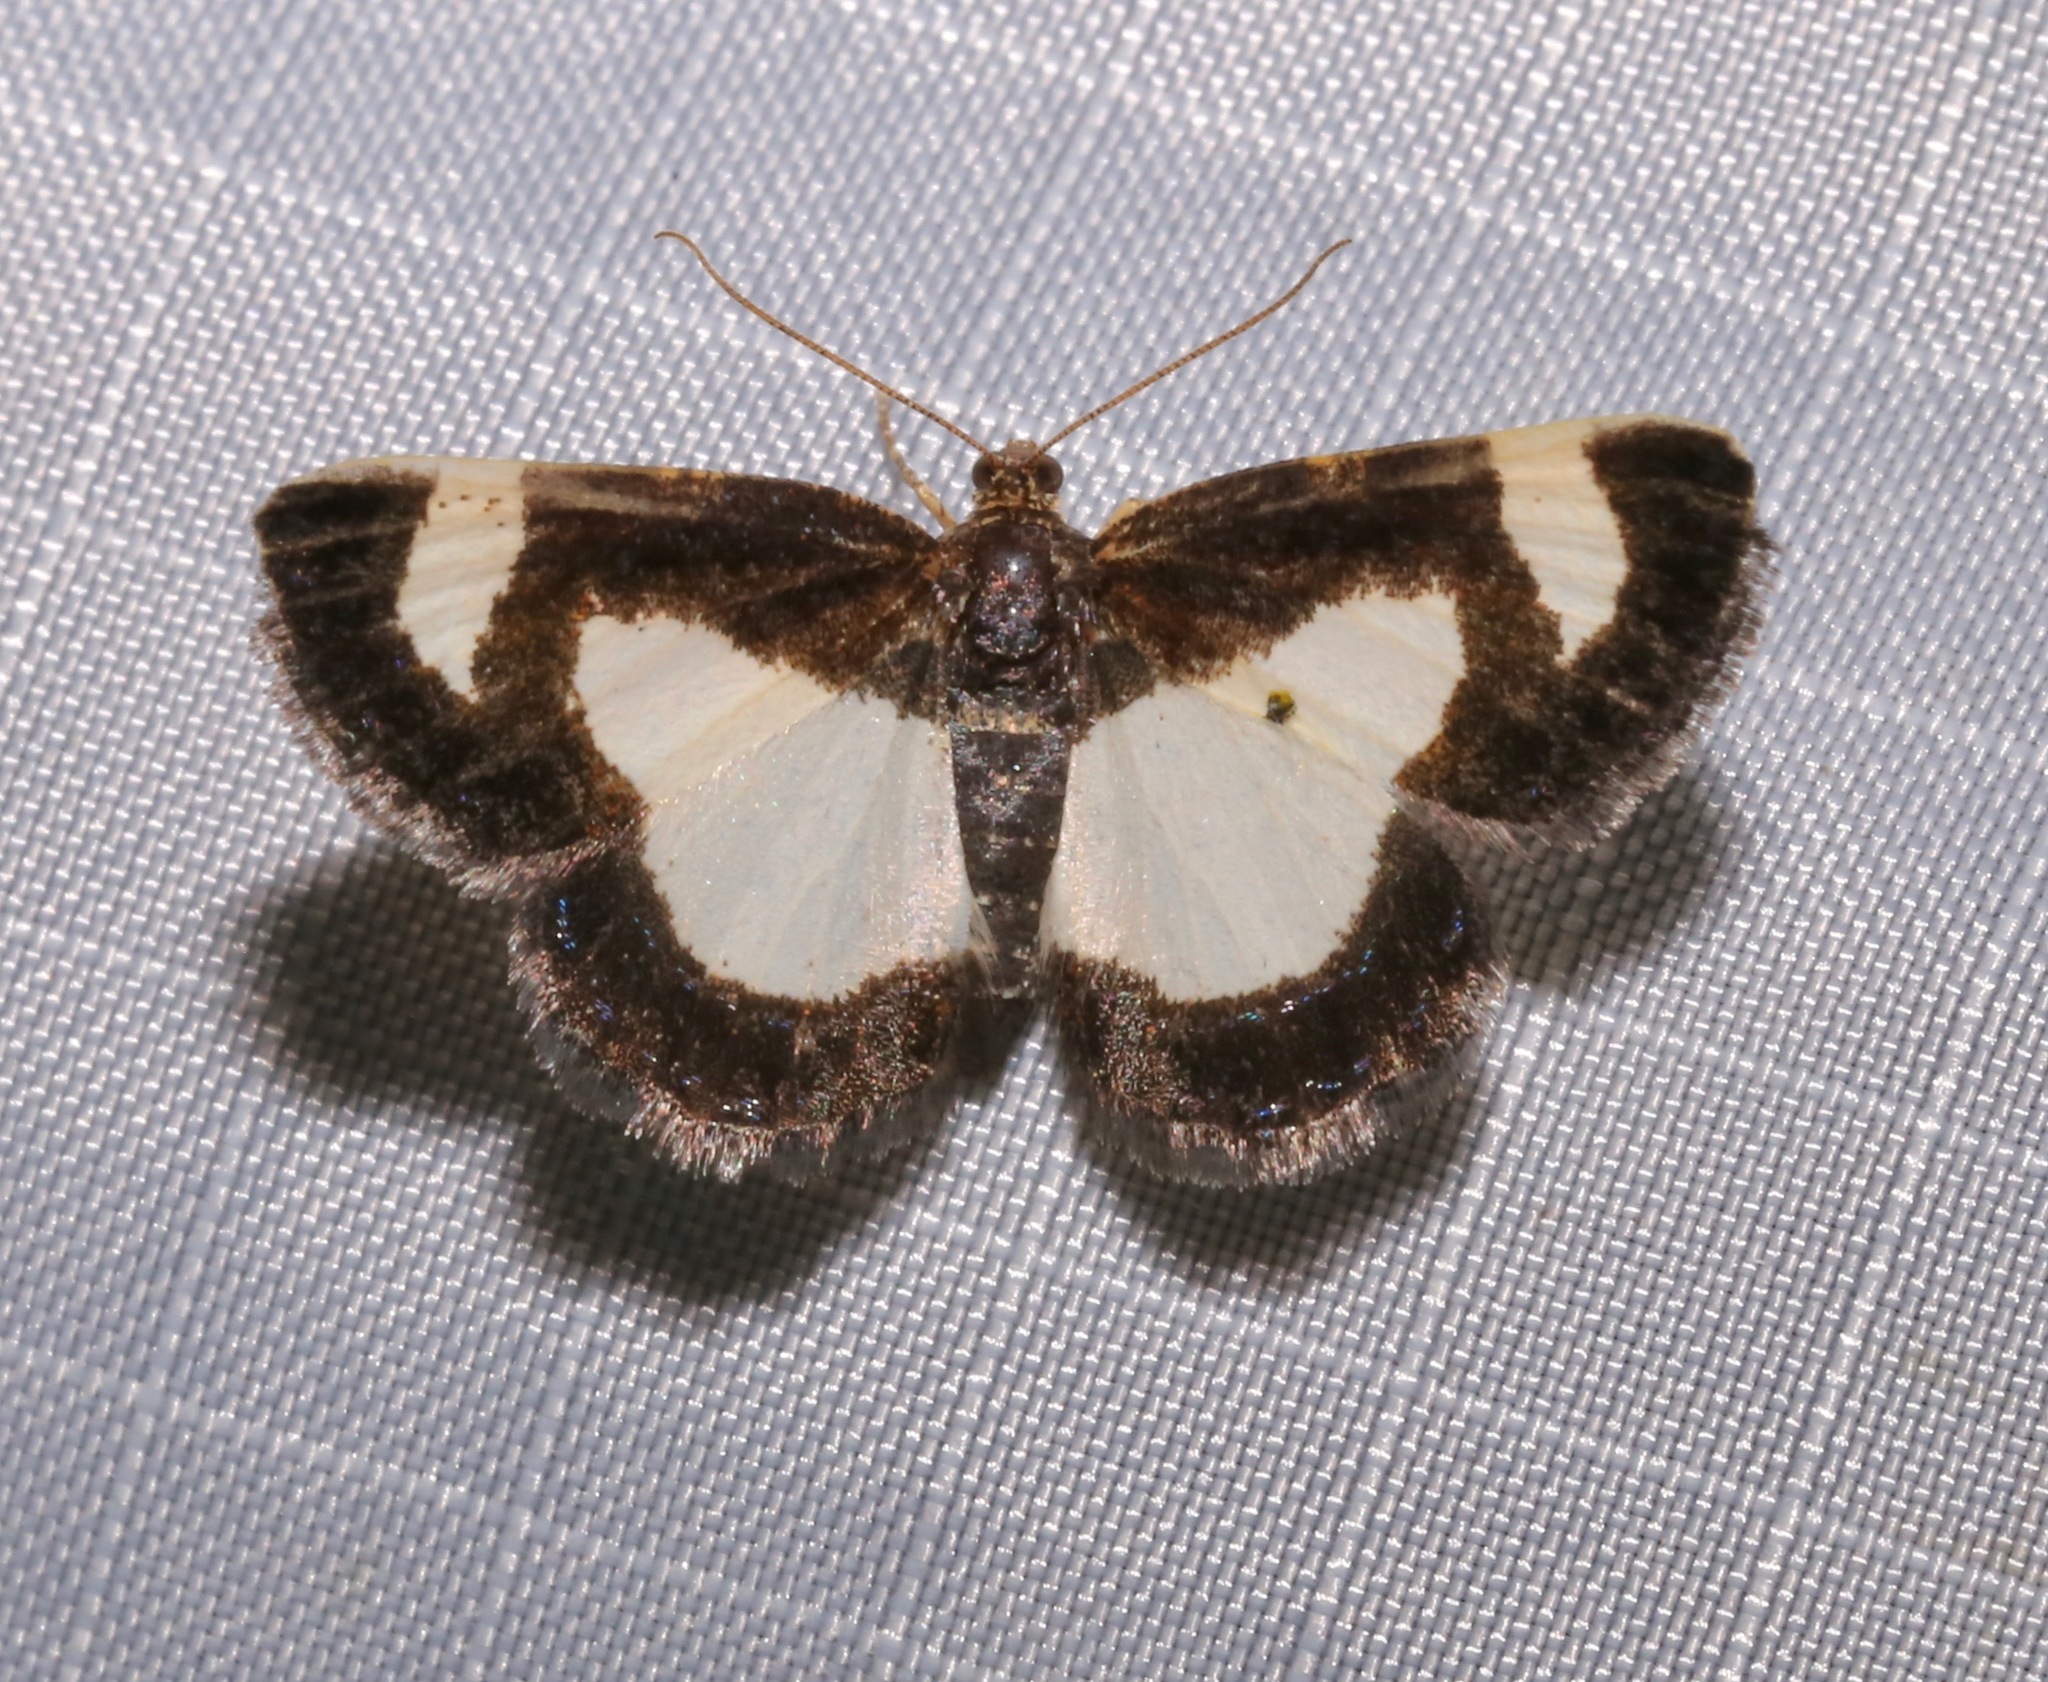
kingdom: Animalia
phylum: Arthropoda
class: Insecta
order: Lepidoptera
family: Geometridae
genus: Heliomata
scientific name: Heliomata cycladata
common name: Common spring moth
